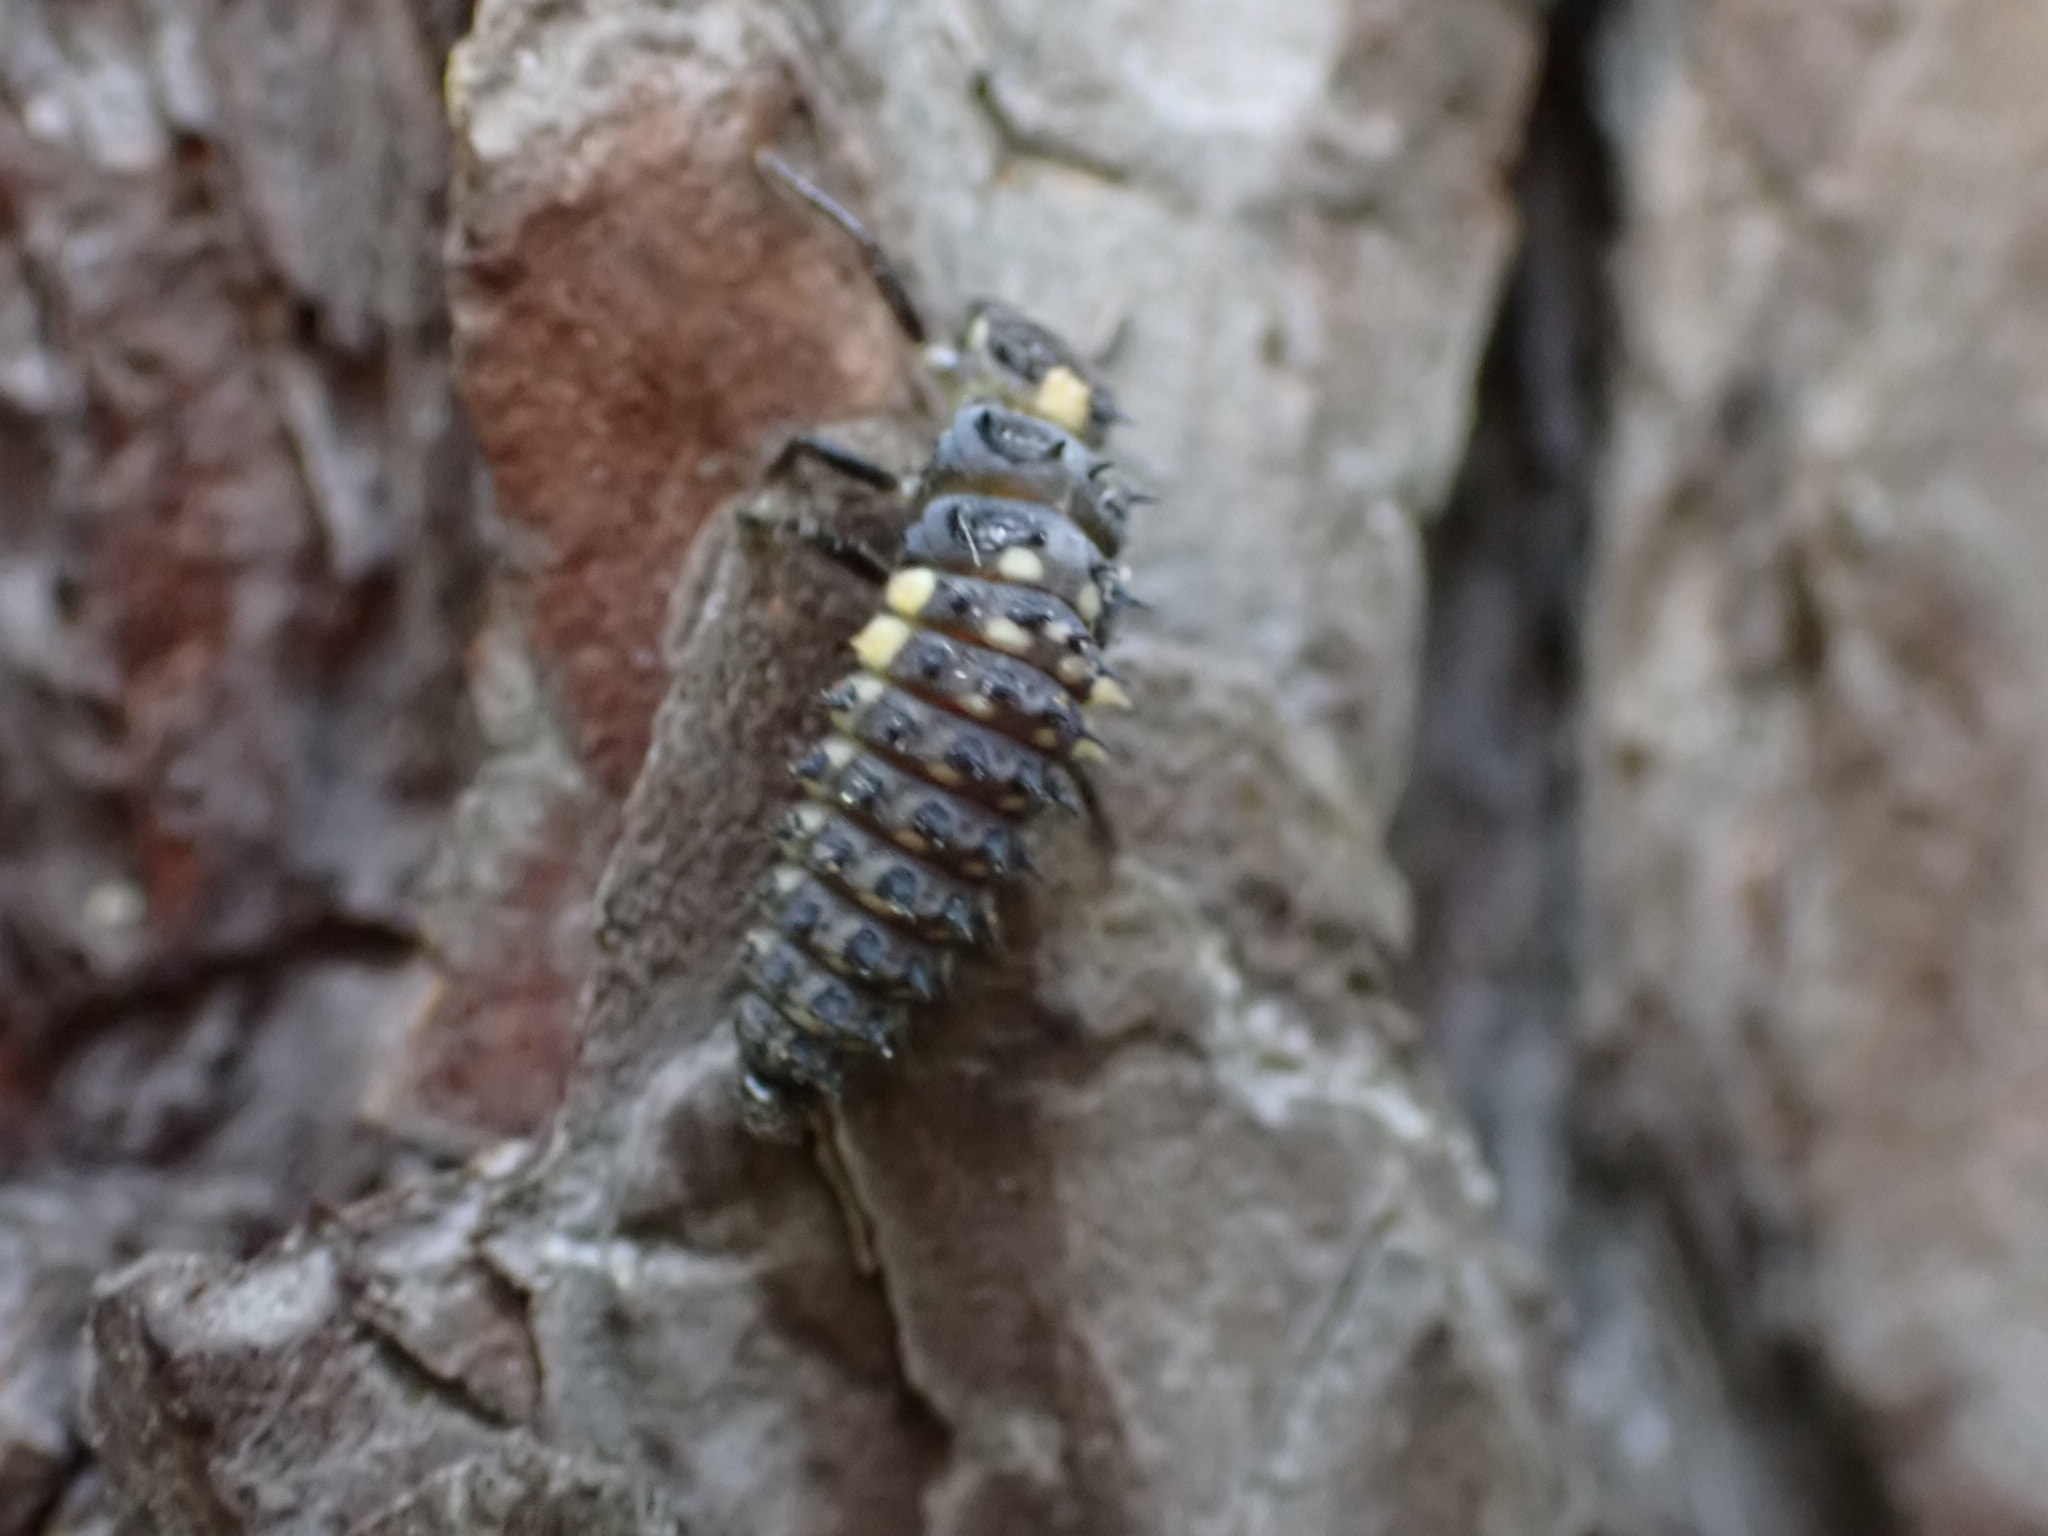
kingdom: Animalia
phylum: Arthropoda
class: Insecta
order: Coleoptera
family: Coccinellidae
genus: Anatis
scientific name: Anatis ocellata
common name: Eyed ladybird
